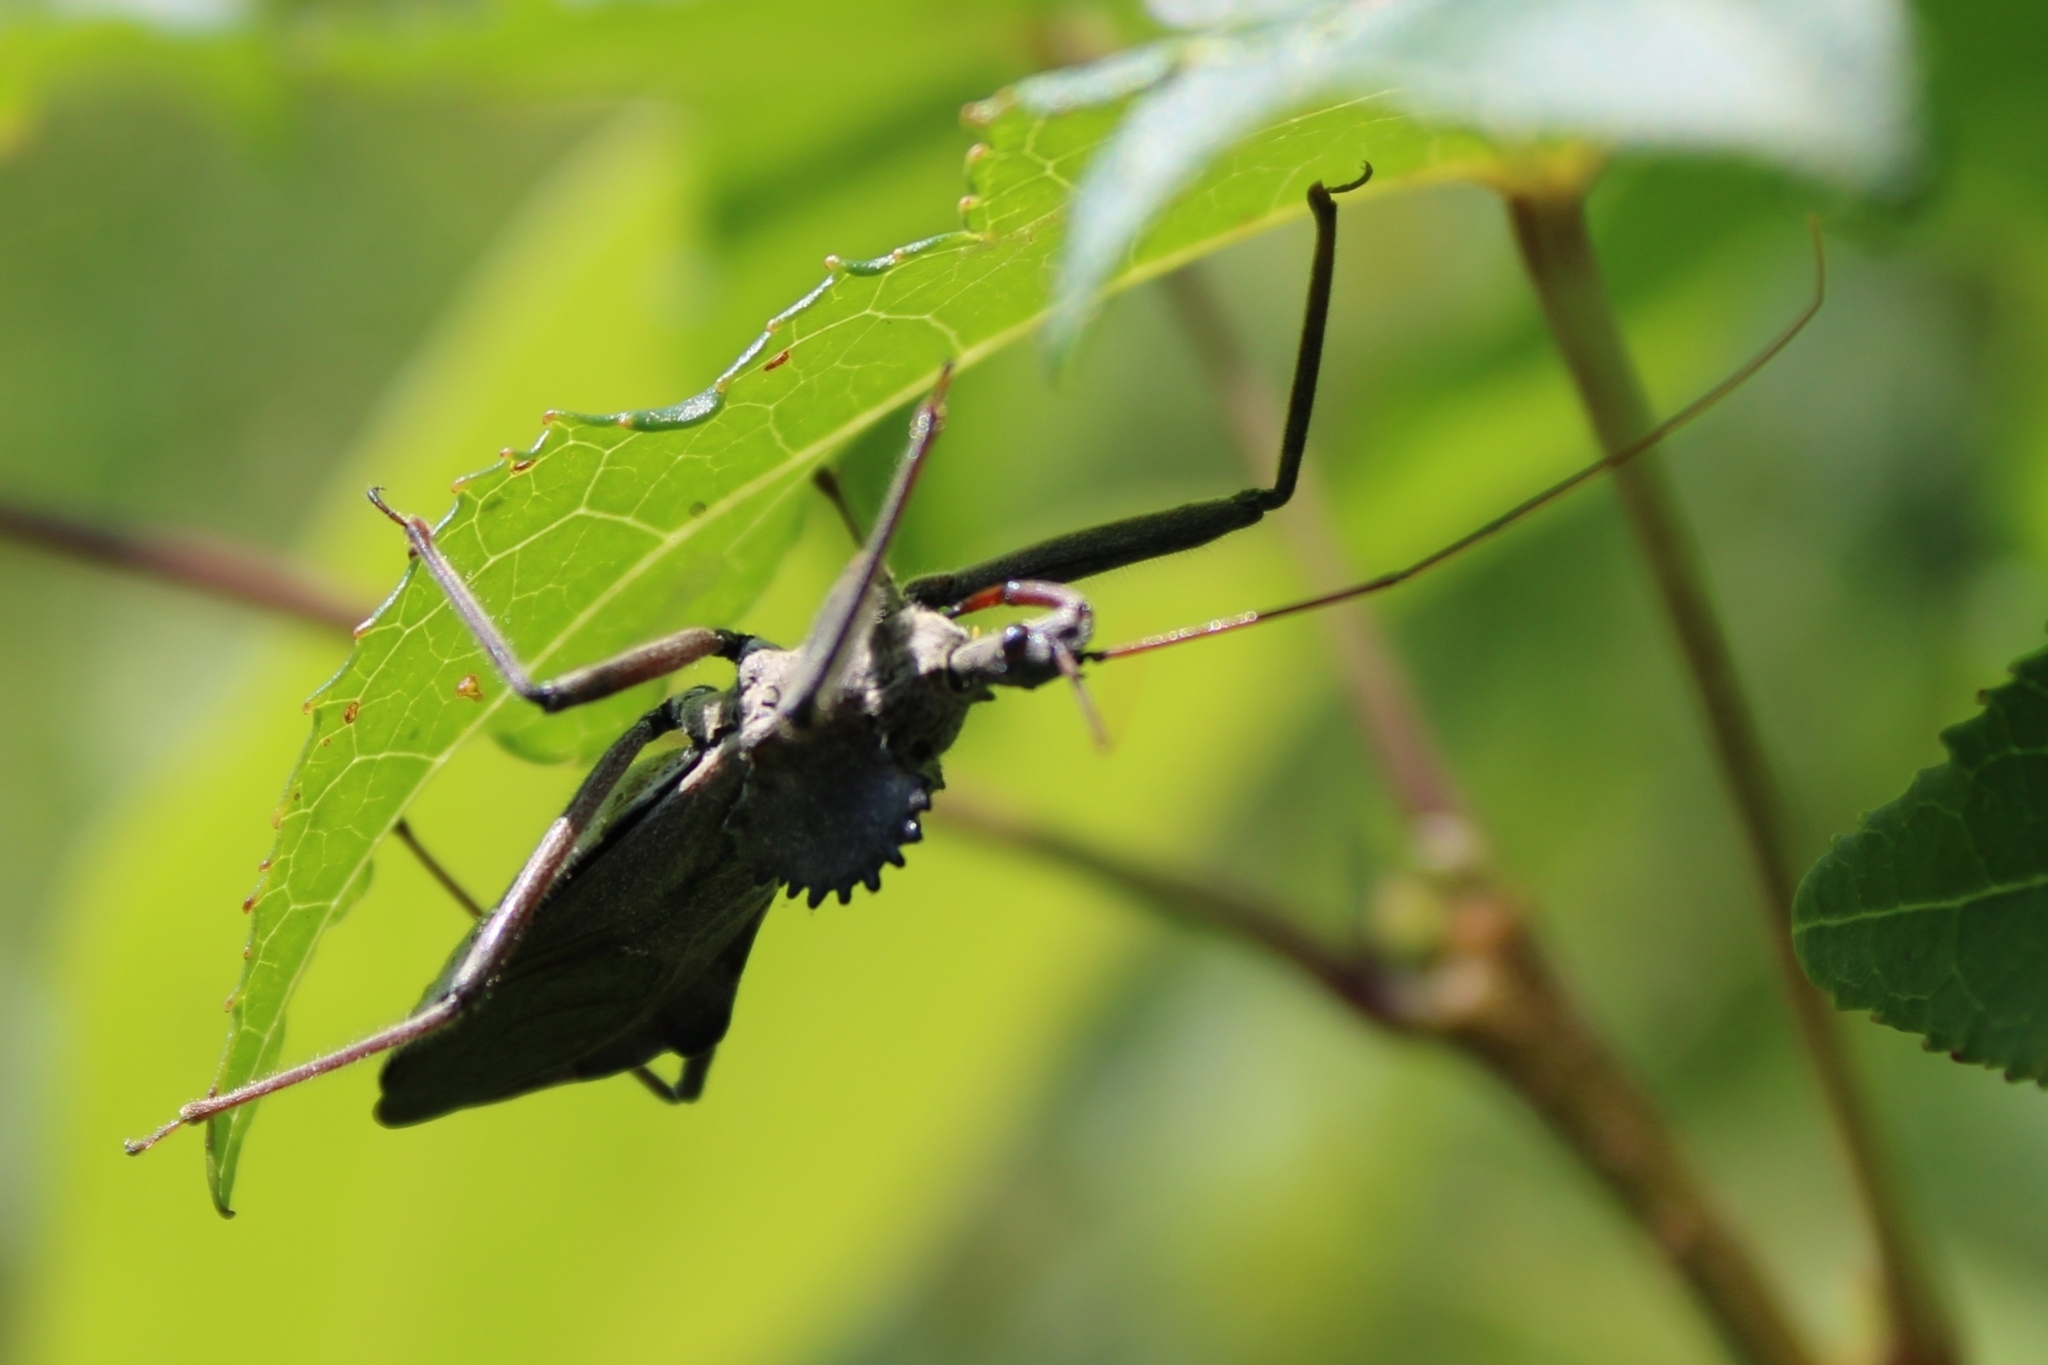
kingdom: Animalia
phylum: Arthropoda
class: Insecta
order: Hemiptera
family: Reduviidae
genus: Arilus
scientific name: Arilus cristatus
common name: North american wheel bug
